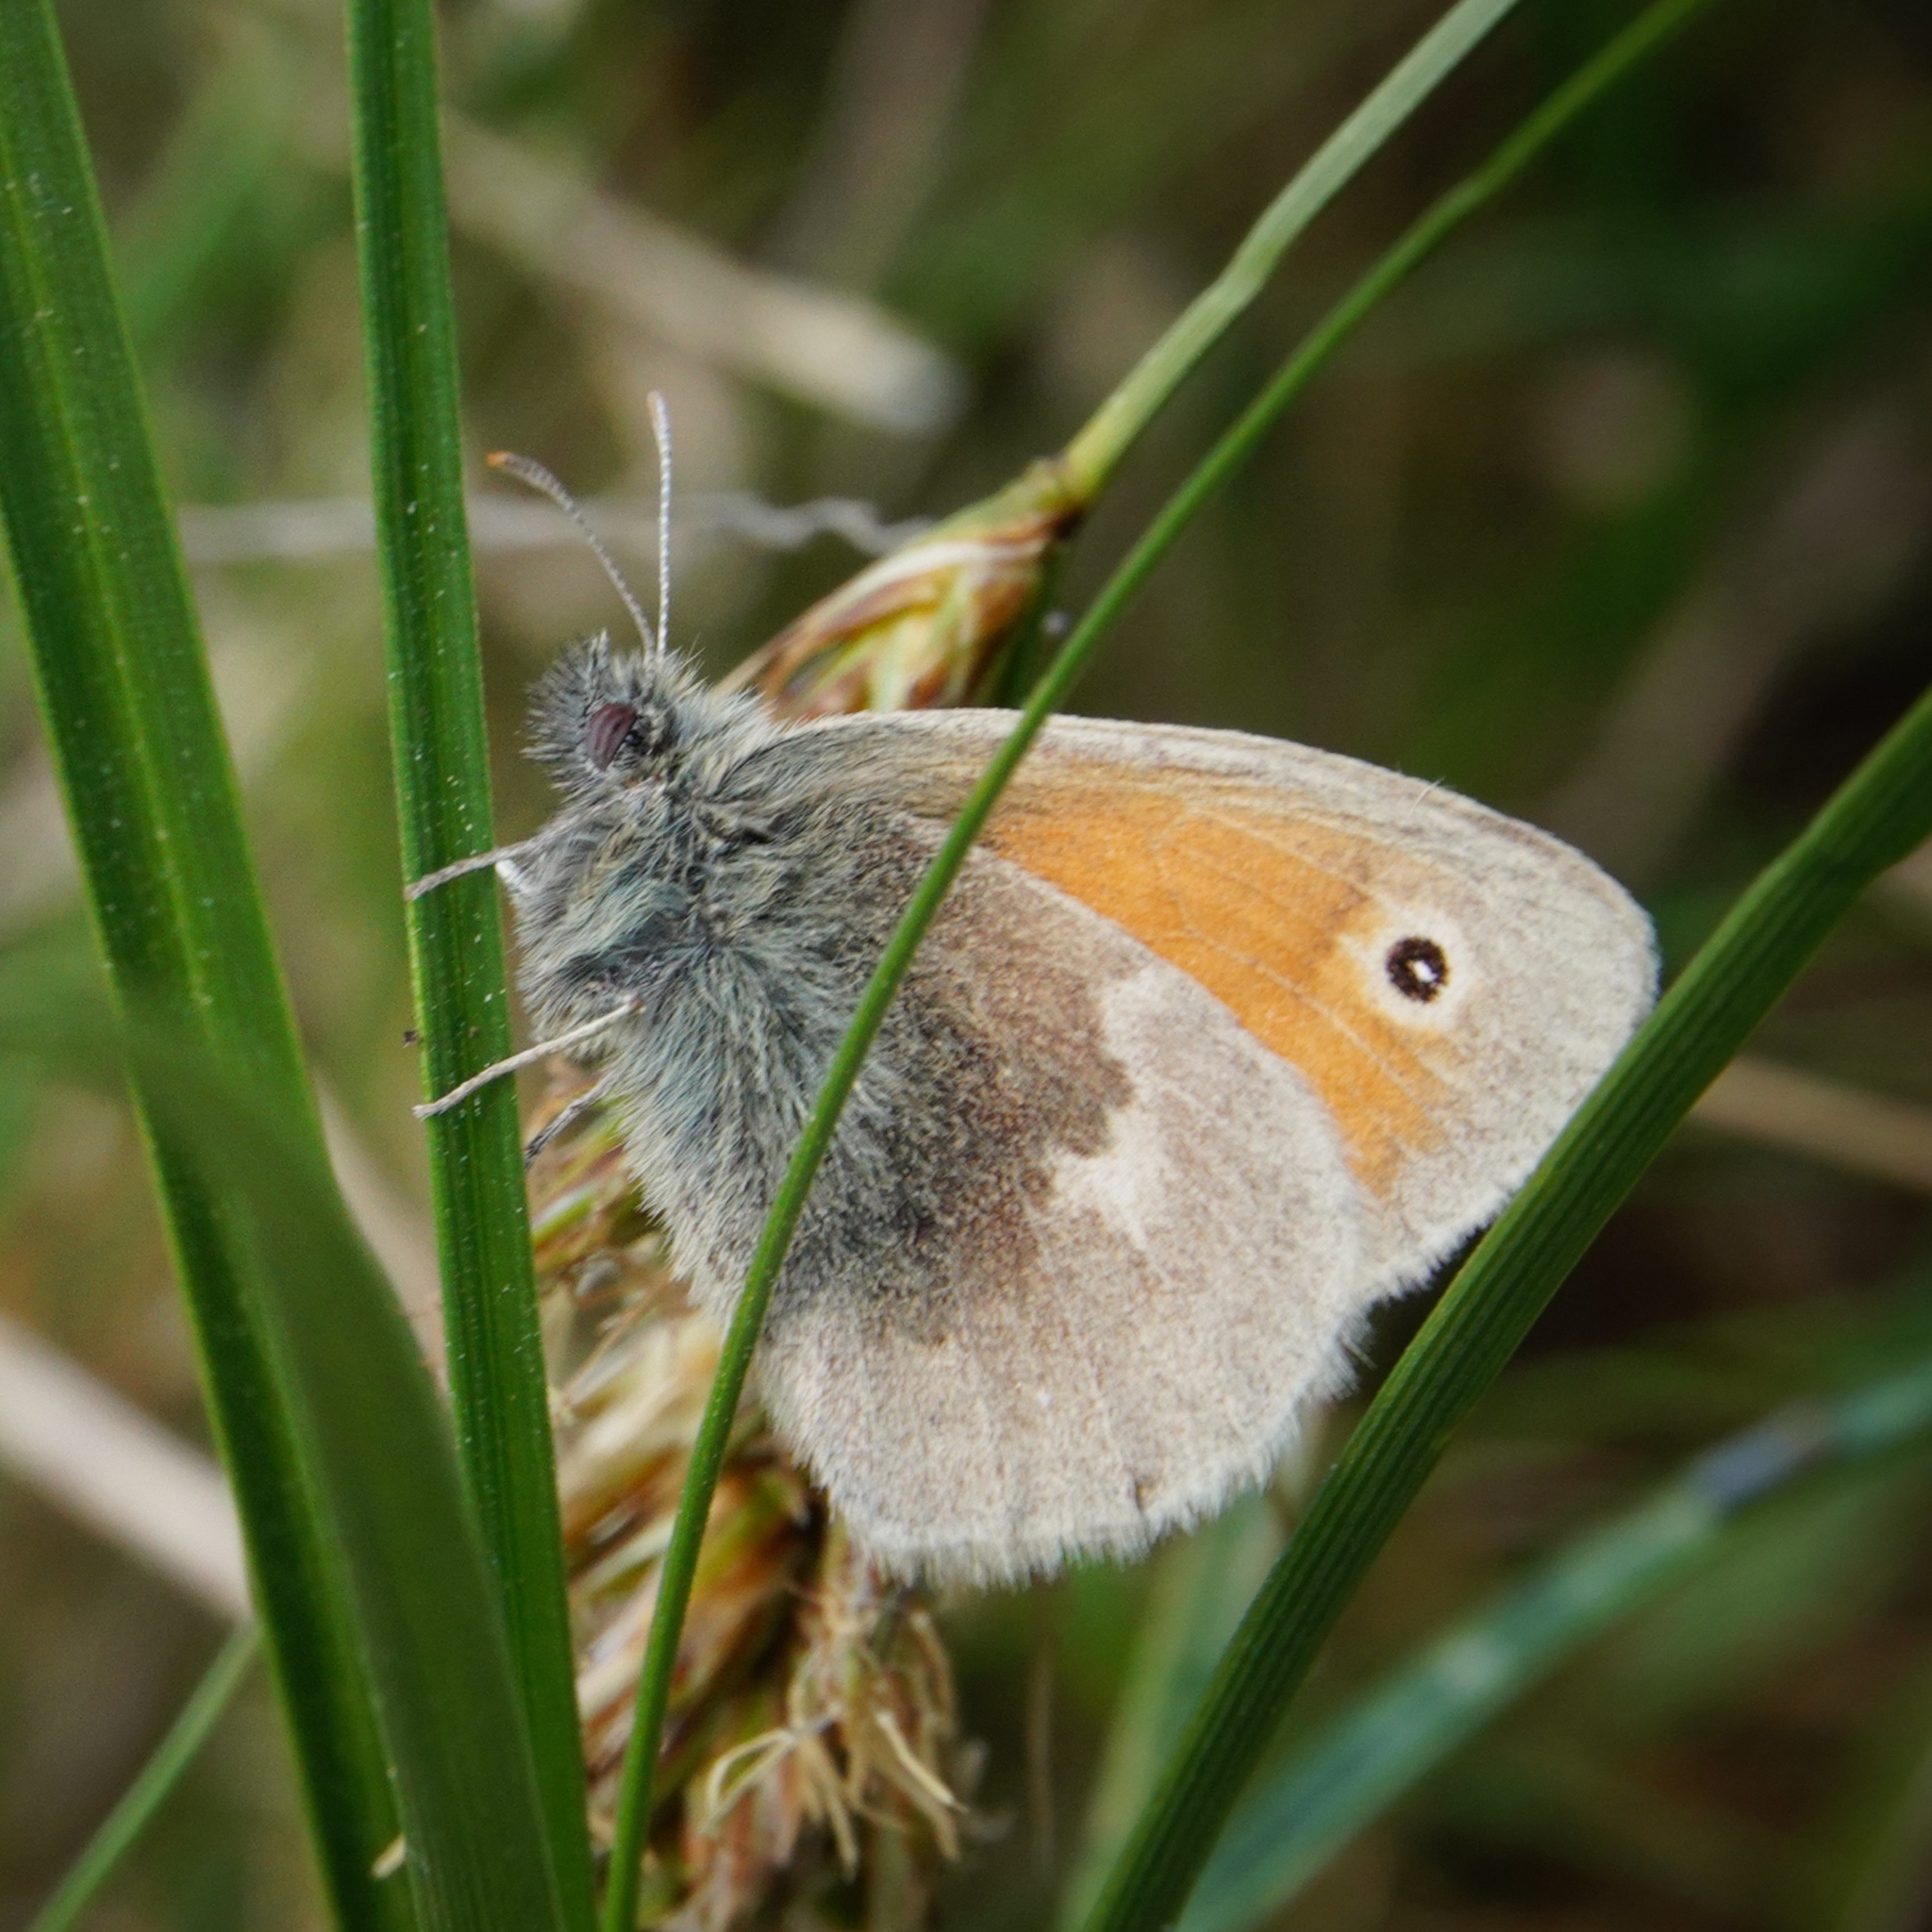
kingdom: Animalia
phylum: Arthropoda
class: Insecta
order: Lepidoptera
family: Nymphalidae
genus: Coenonympha
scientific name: Coenonympha pamphilus
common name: Small heath
